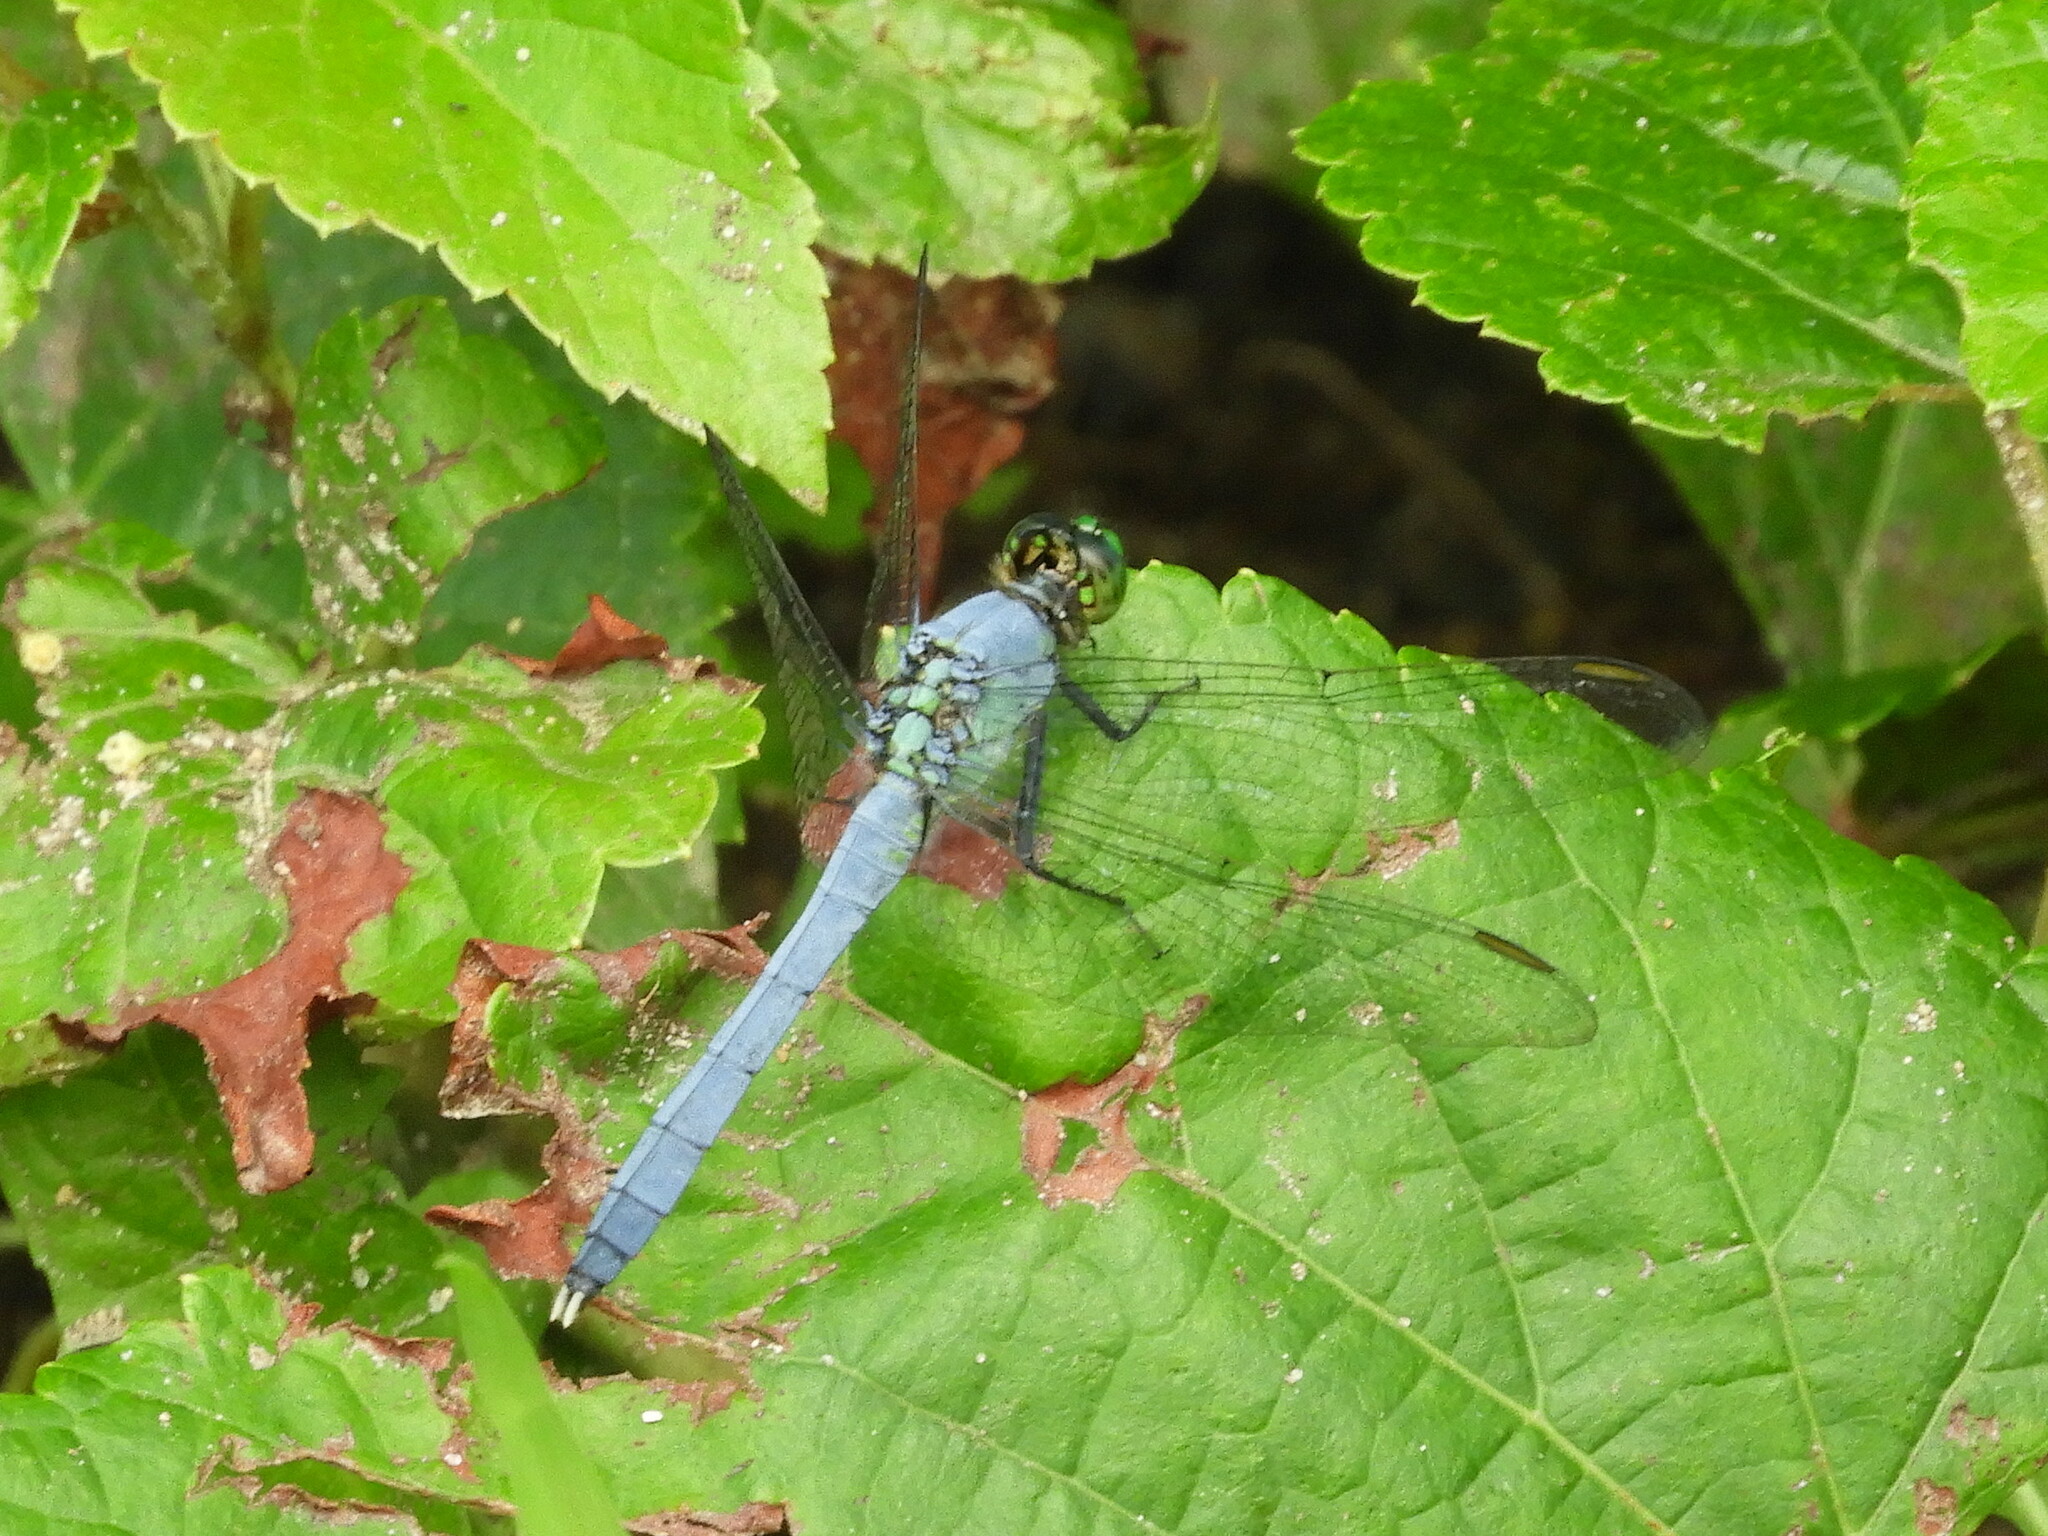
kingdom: Animalia
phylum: Arthropoda
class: Insecta
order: Odonata
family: Libellulidae
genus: Erythemis
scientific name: Erythemis simplicicollis
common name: Eastern pondhawk
